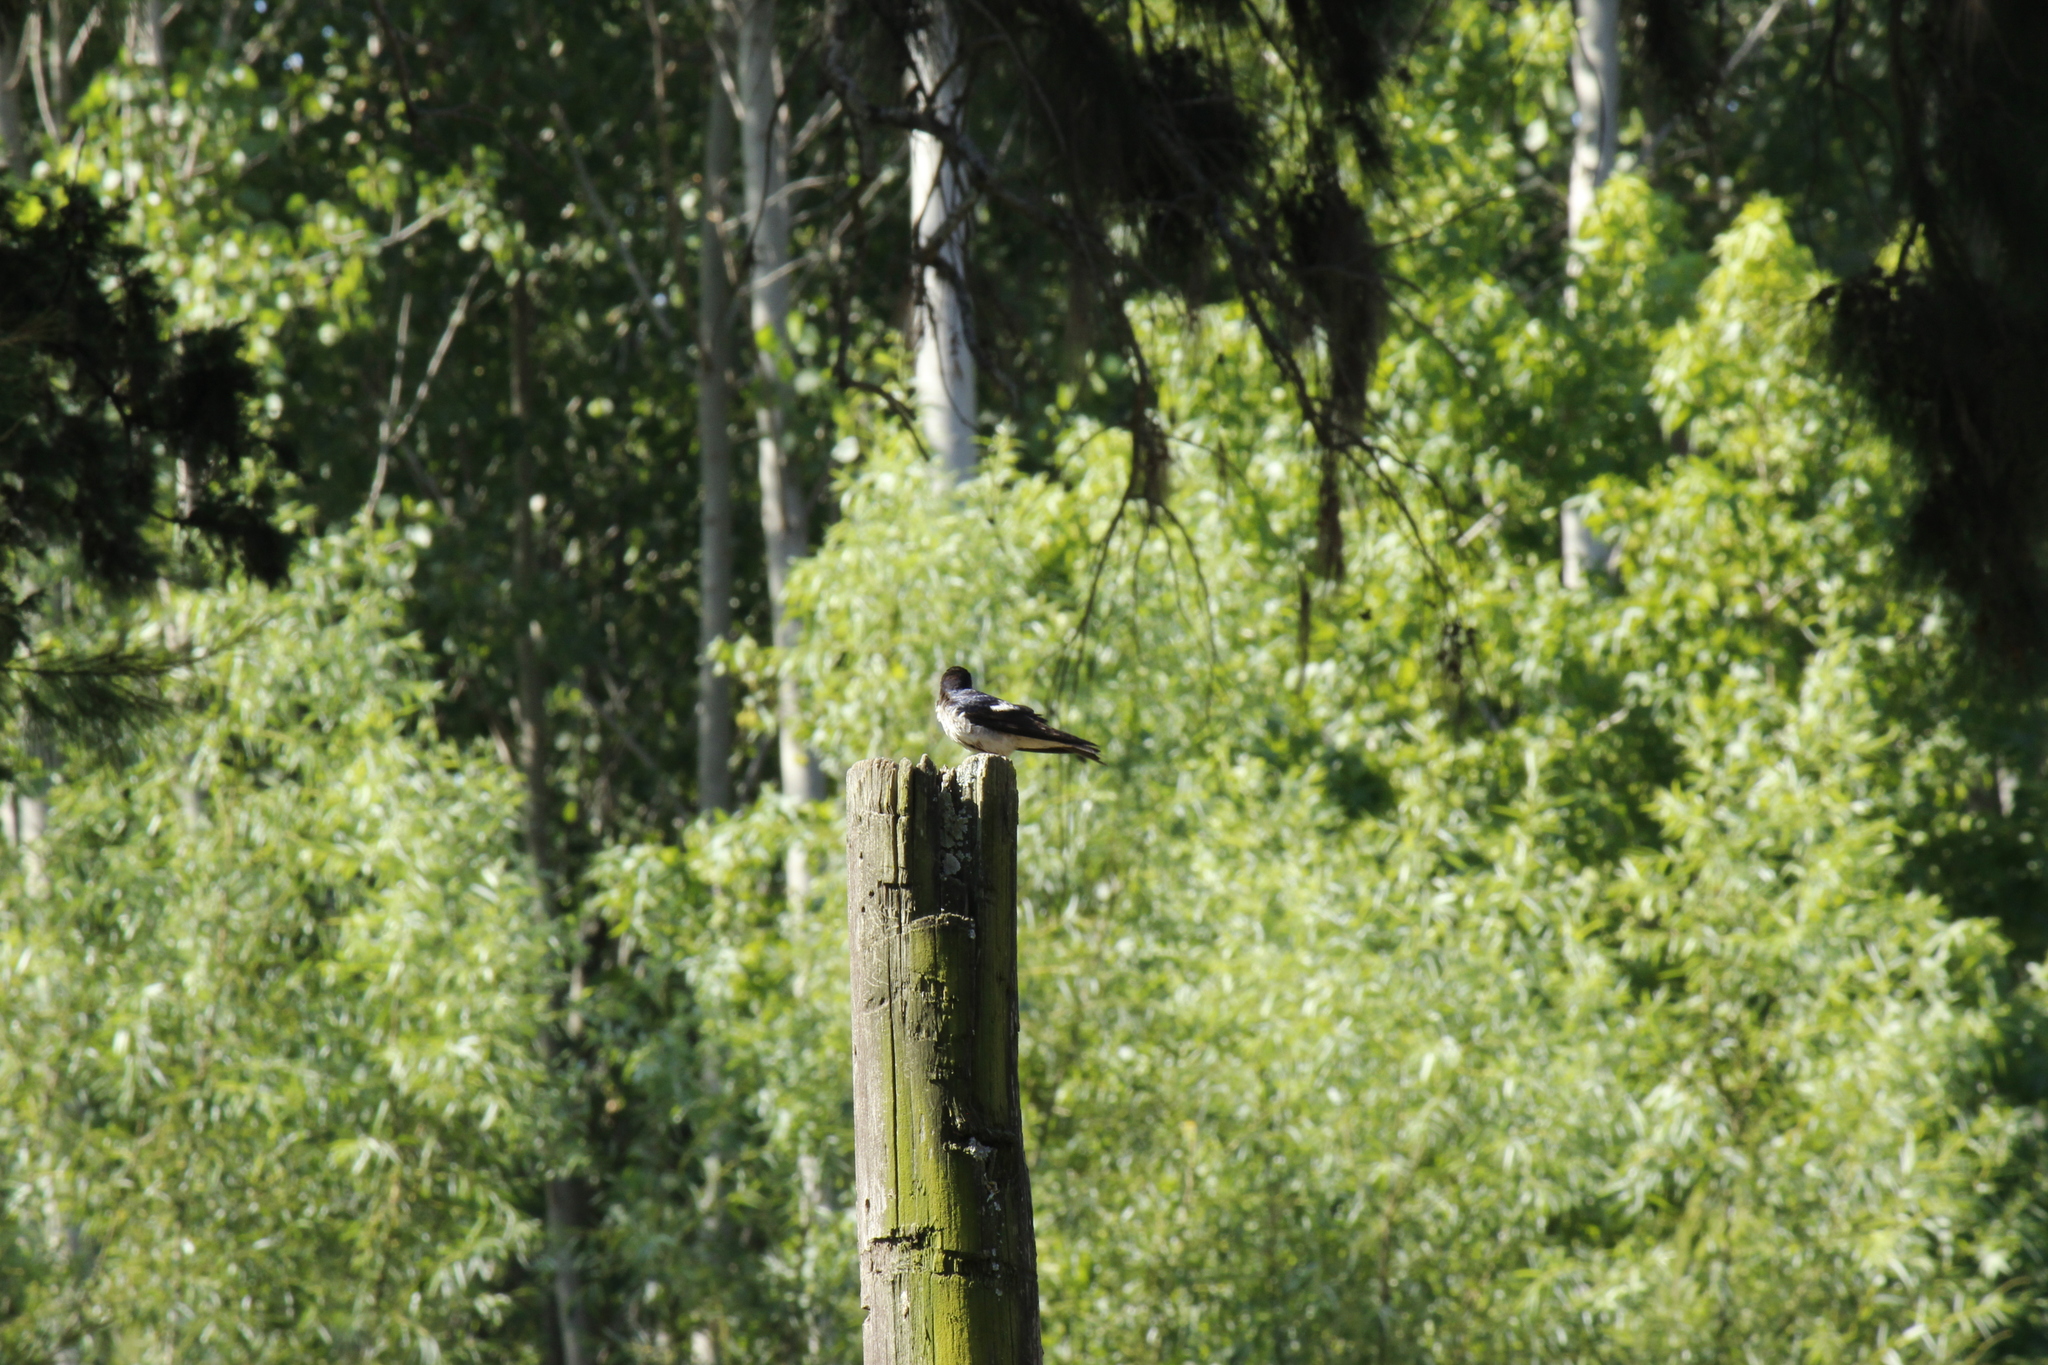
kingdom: Animalia
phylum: Chordata
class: Aves
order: Passeriformes
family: Hirundinidae
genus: Progne
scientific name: Progne chalybea
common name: Grey-breasted martin
